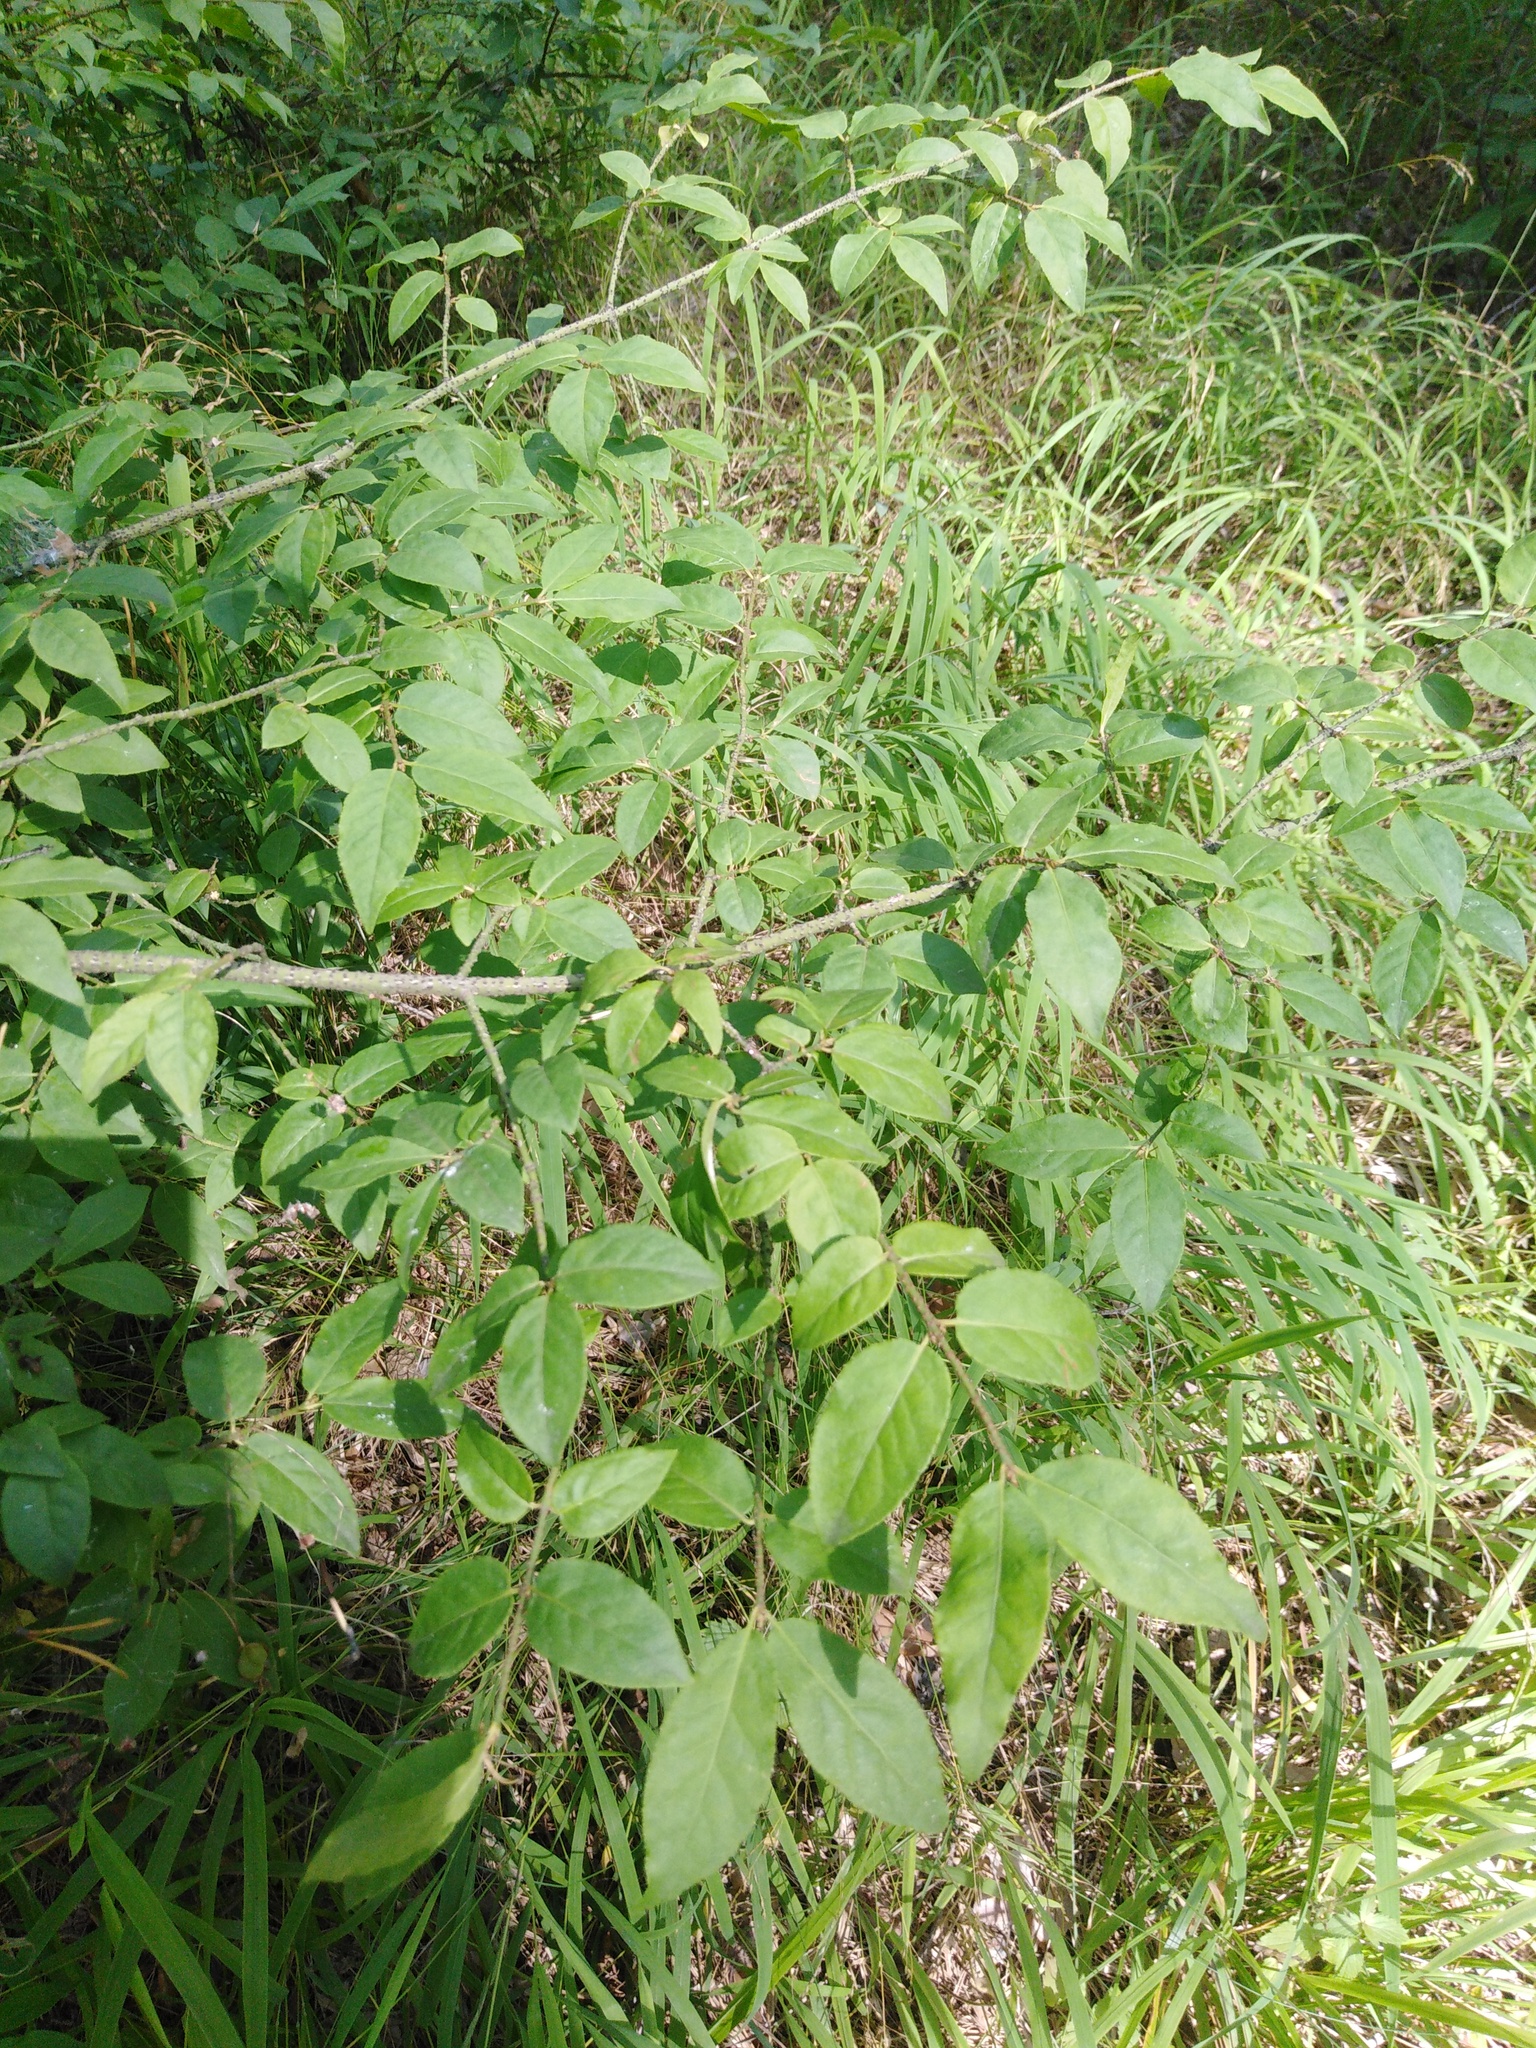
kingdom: Plantae
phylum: Tracheophyta
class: Magnoliopsida
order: Celastrales
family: Celastraceae
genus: Euonymus
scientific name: Euonymus verrucosus
